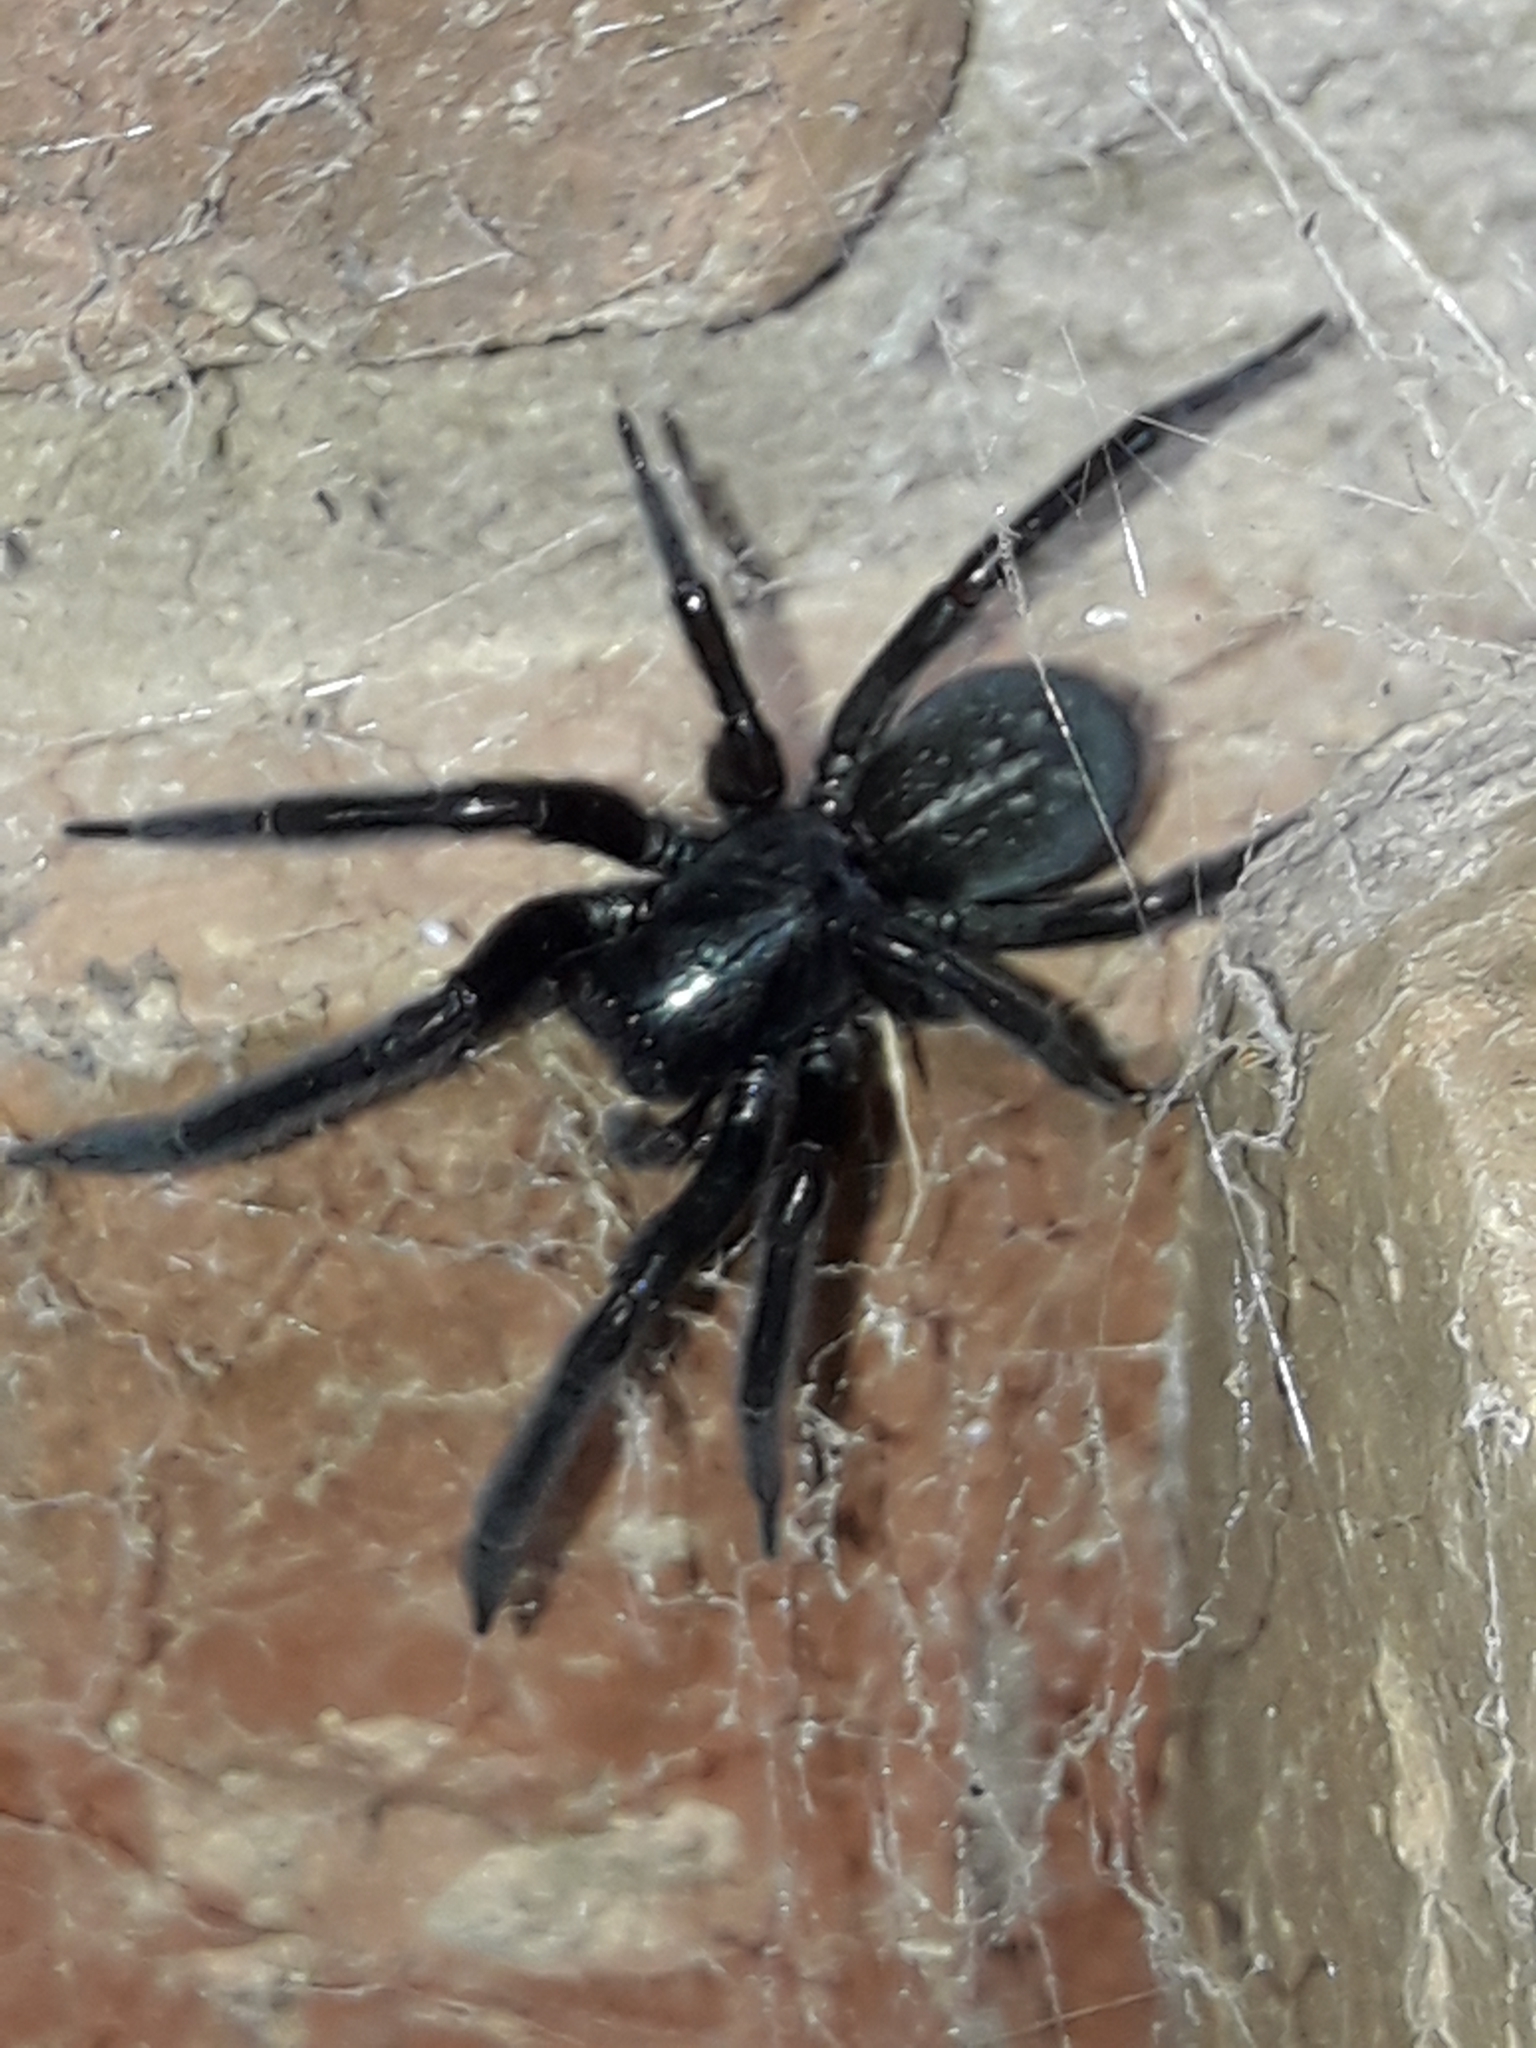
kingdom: Animalia
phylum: Arthropoda
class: Arachnida
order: Araneae
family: Desidae
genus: Badumna
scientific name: Badumna insignis
